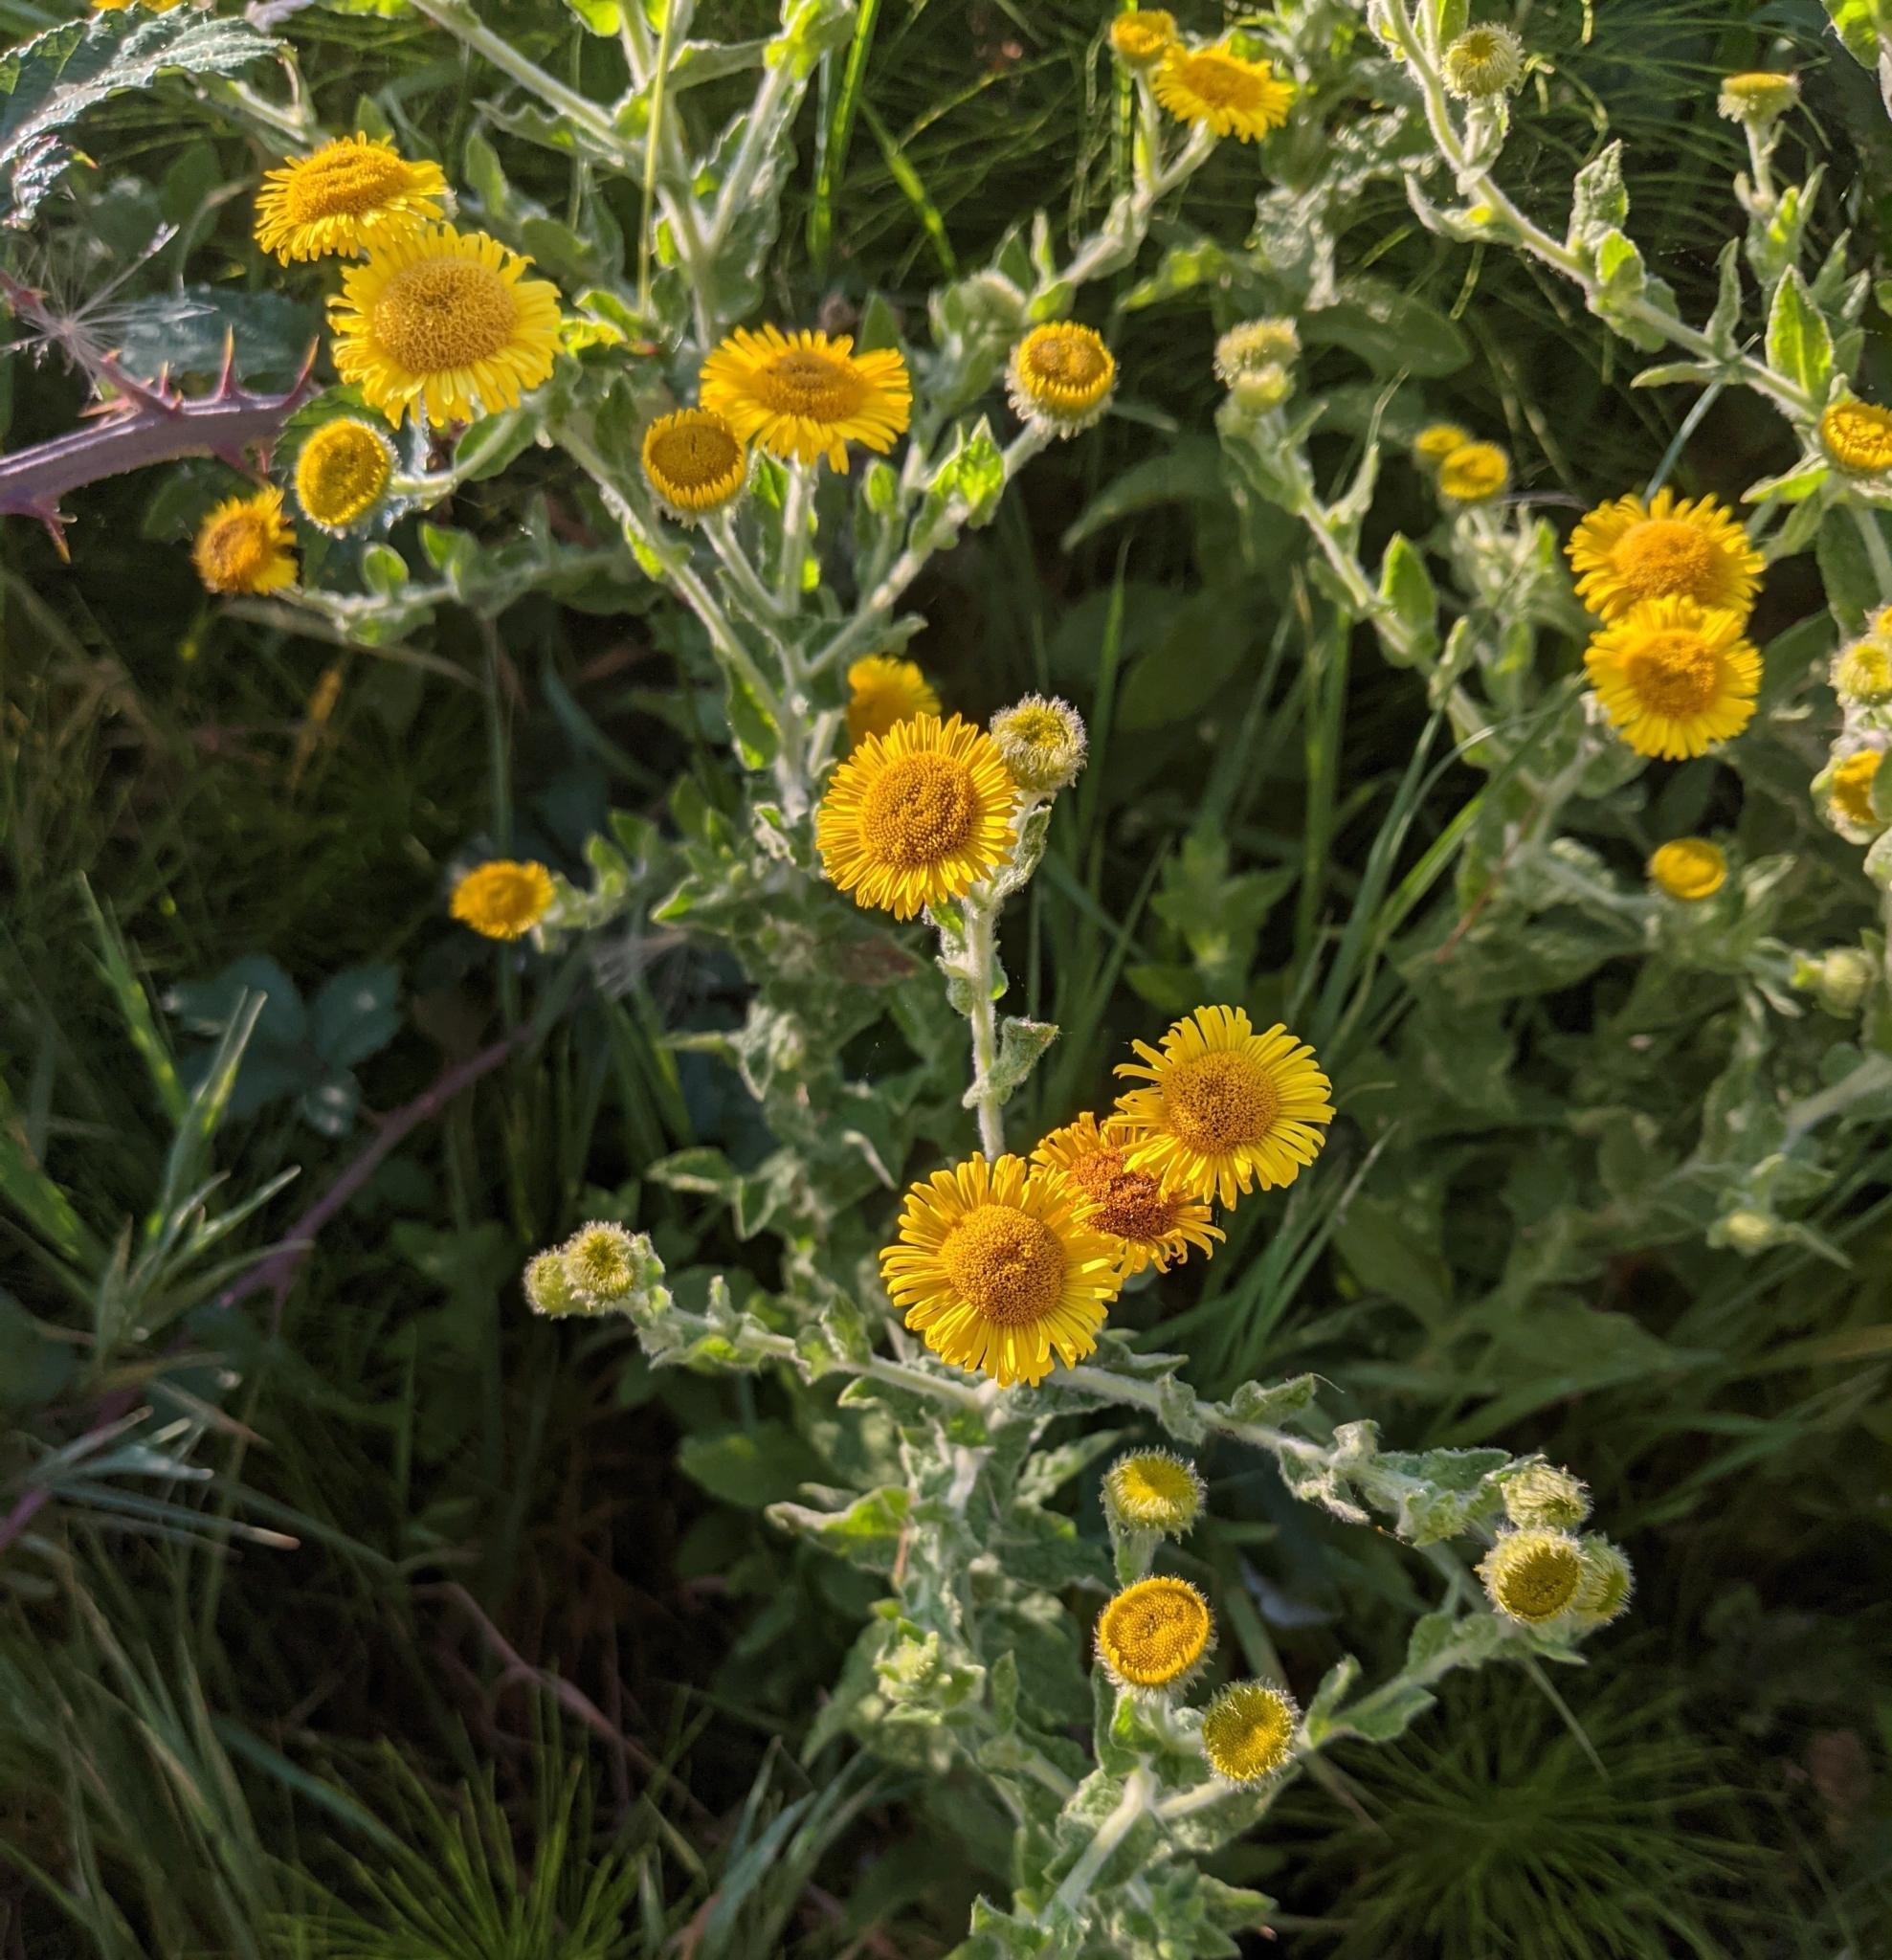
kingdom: Plantae
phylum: Tracheophyta
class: Magnoliopsida
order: Asterales
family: Asteraceae
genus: Pulicaria
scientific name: Pulicaria dysenterica
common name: Common fleabane
